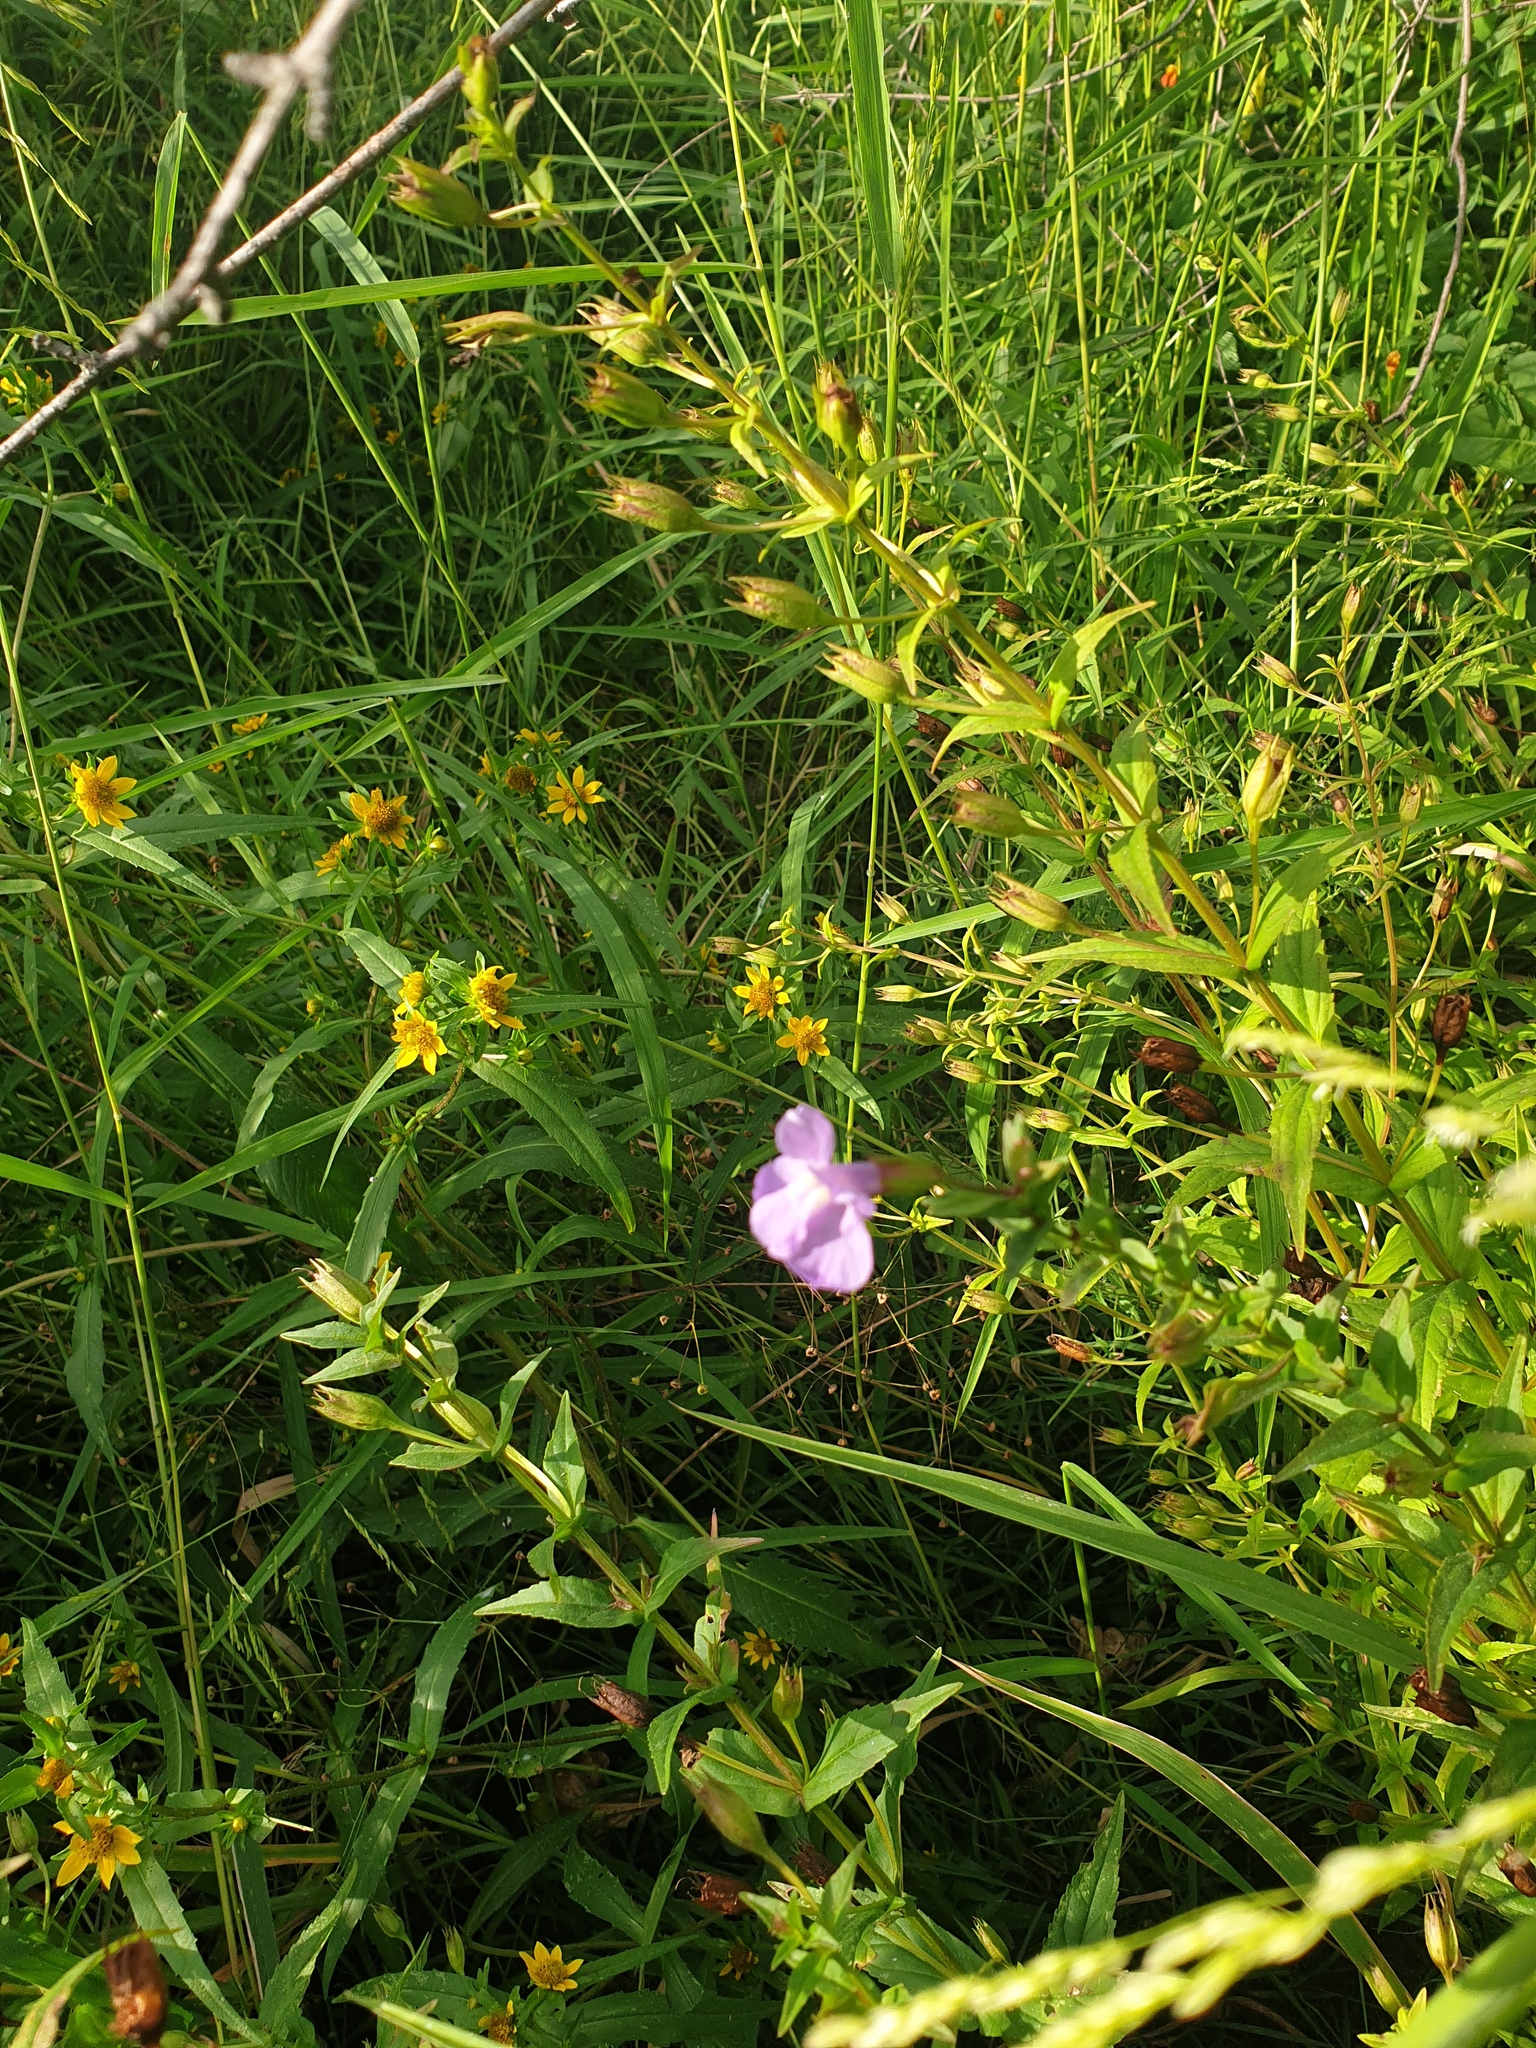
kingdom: Plantae
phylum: Tracheophyta
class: Magnoliopsida
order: Lamiales
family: Phrymaceae
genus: Mimulus
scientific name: Mimulus ringens
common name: Allegheny monkeyflower
